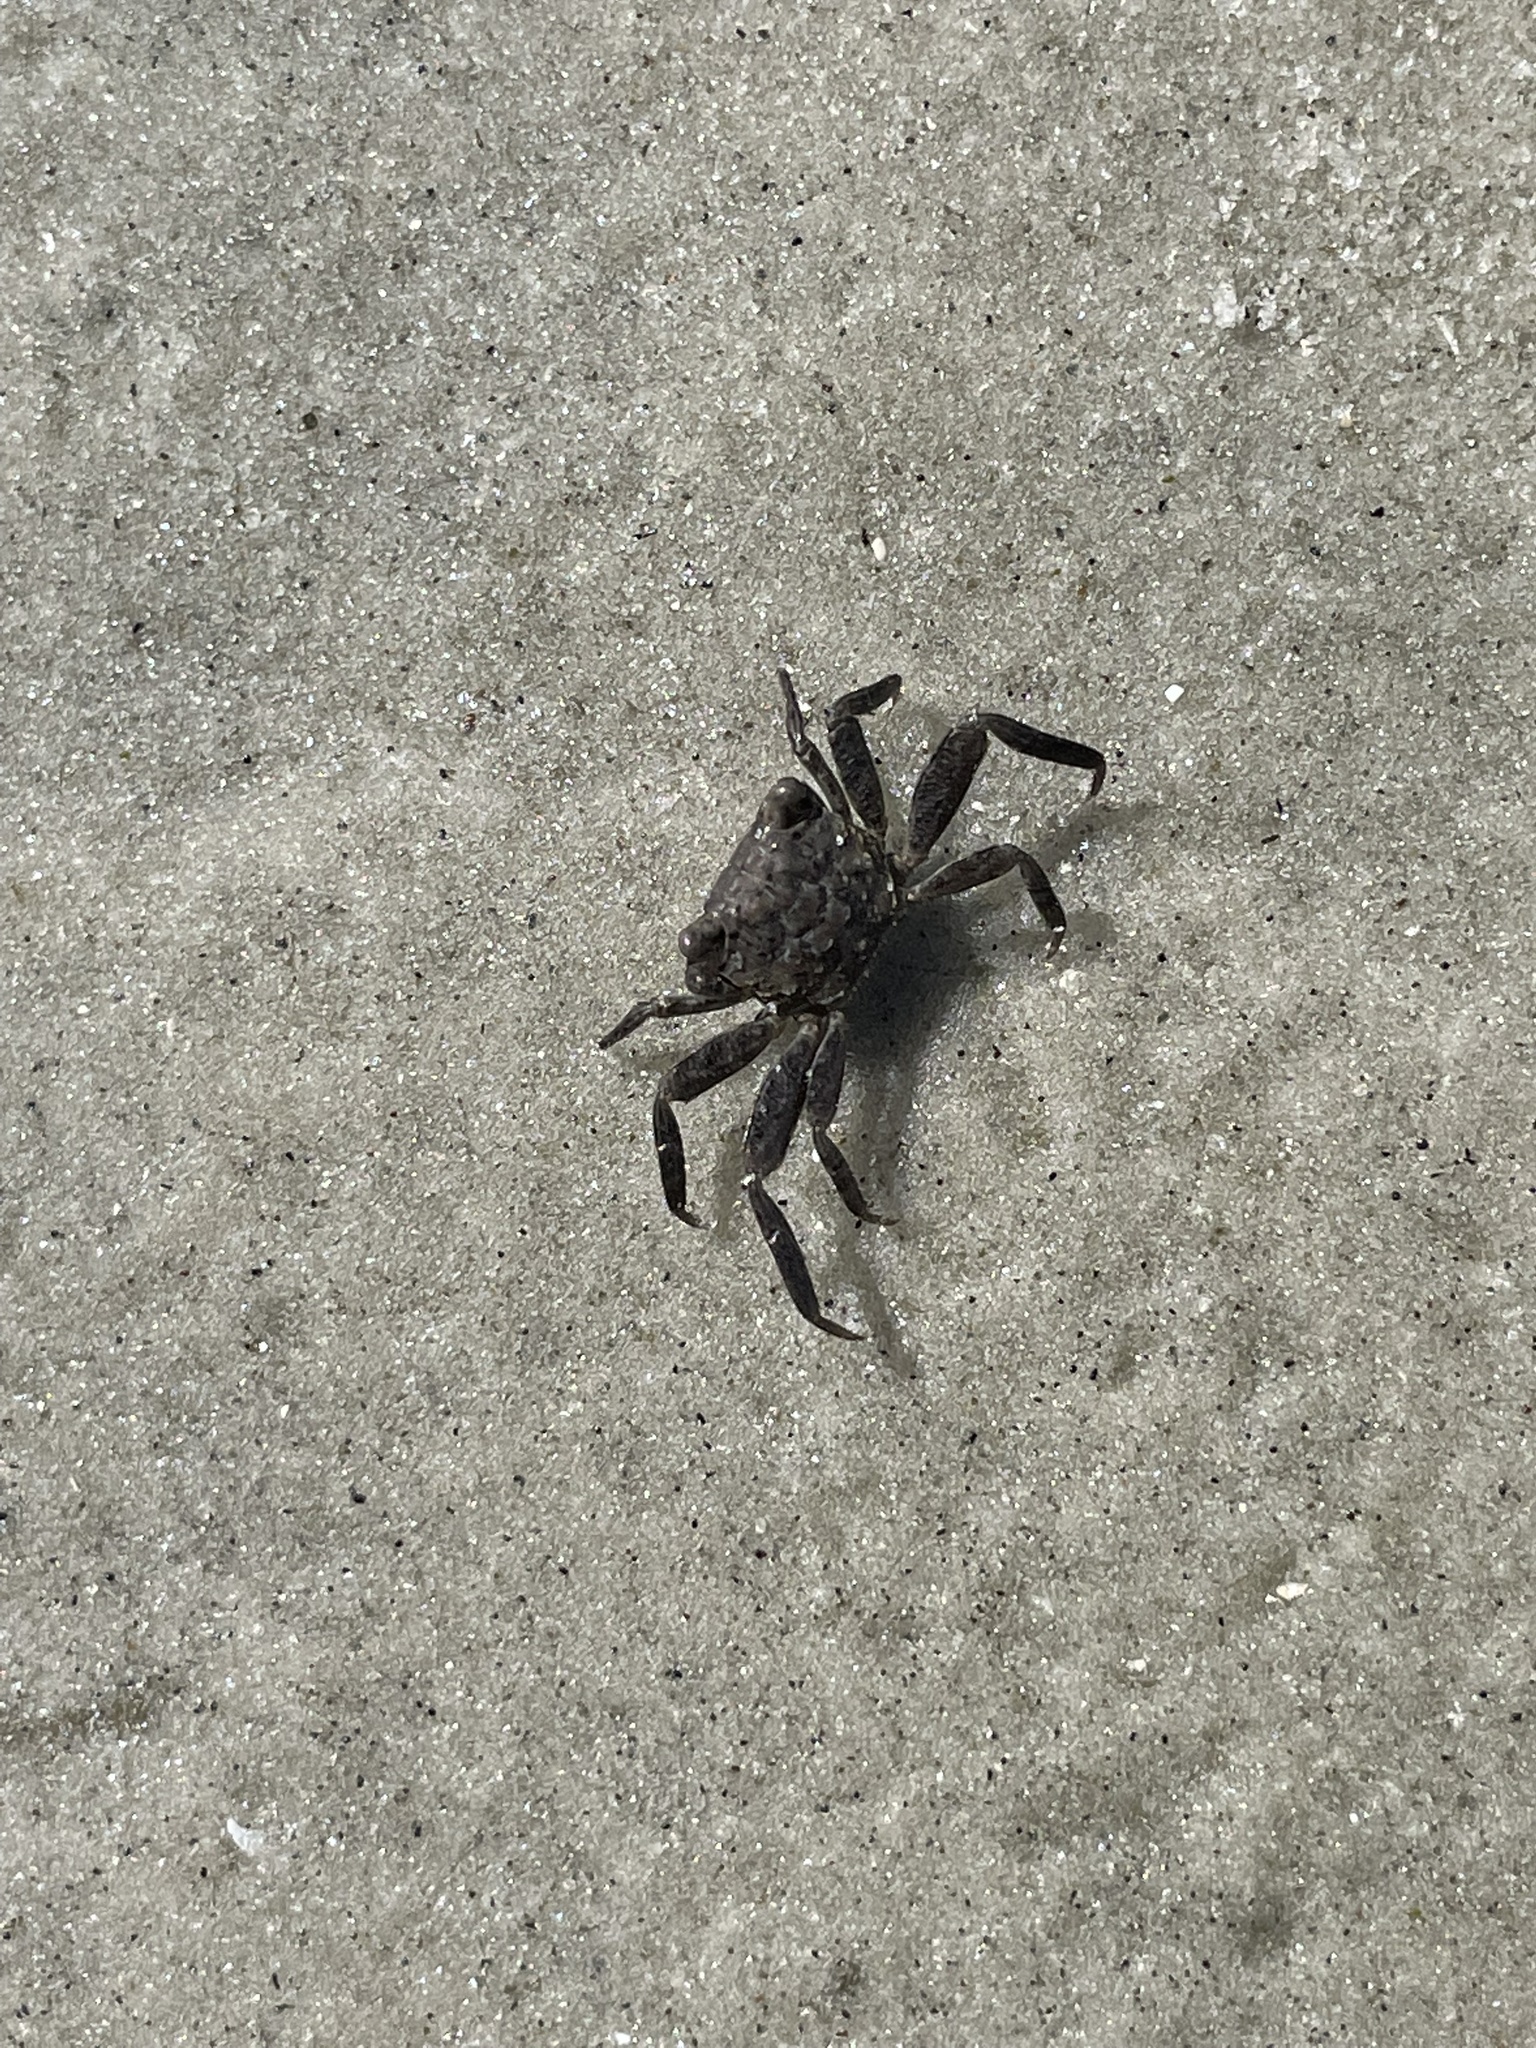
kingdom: Animalia
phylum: Arthropoda
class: Malacostraca
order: Decapoda
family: Sesarmidae
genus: Armases
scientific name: Armases cinereum
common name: Squareback marsh crab
